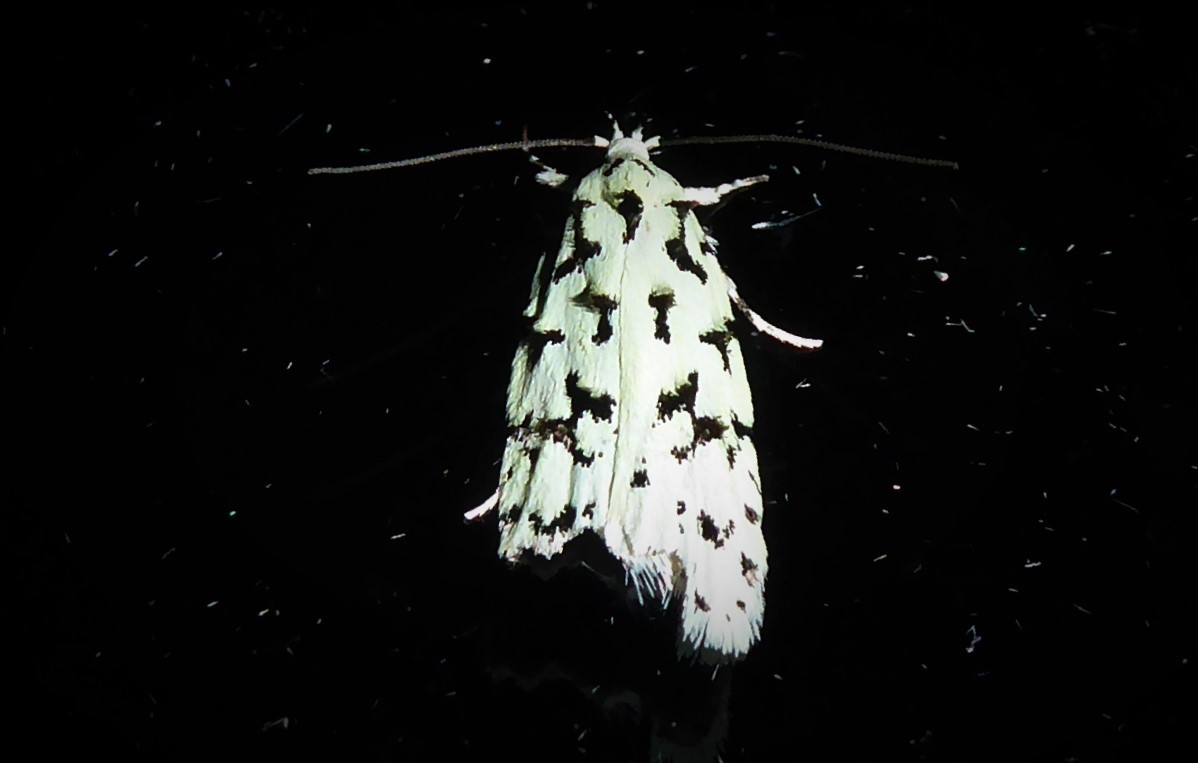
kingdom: Animalia
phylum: Arthropoda
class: Insecta
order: Lepidoptera
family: Oecophoridae
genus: Izatha
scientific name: Izatha huttoni
